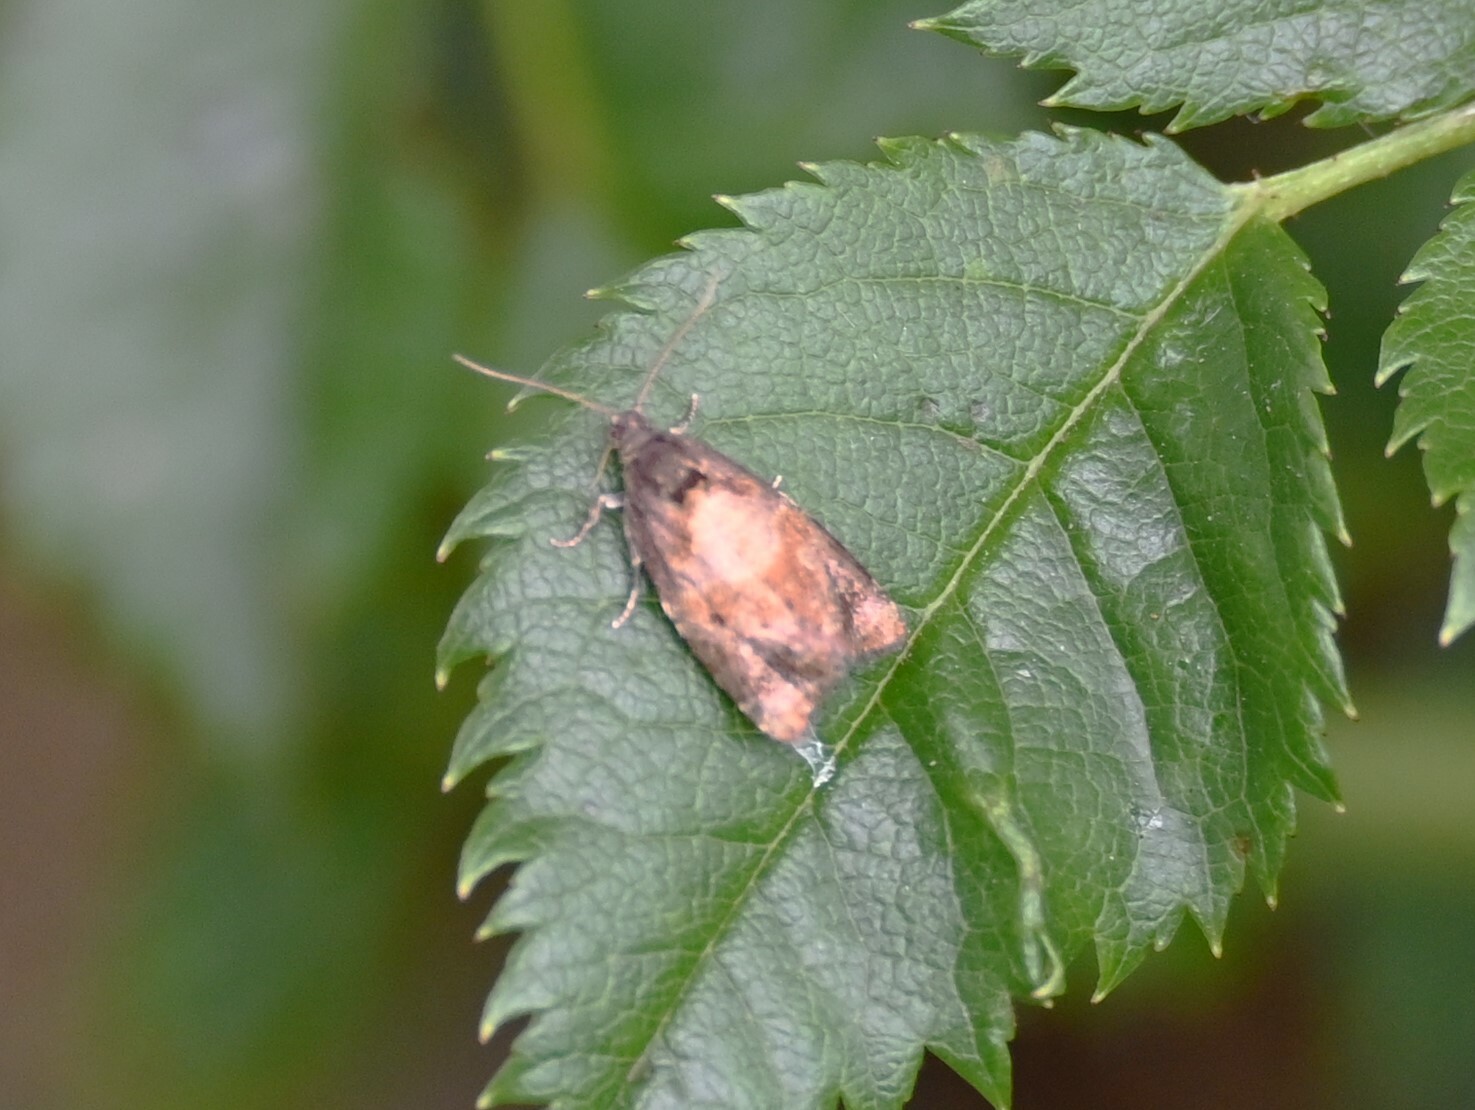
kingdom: Animalia
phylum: Arthropoda
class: Insecta
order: Lepidoptera
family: Tortricidae
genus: Ditula
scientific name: Ditula angustiorana
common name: Red-barred tortrix
